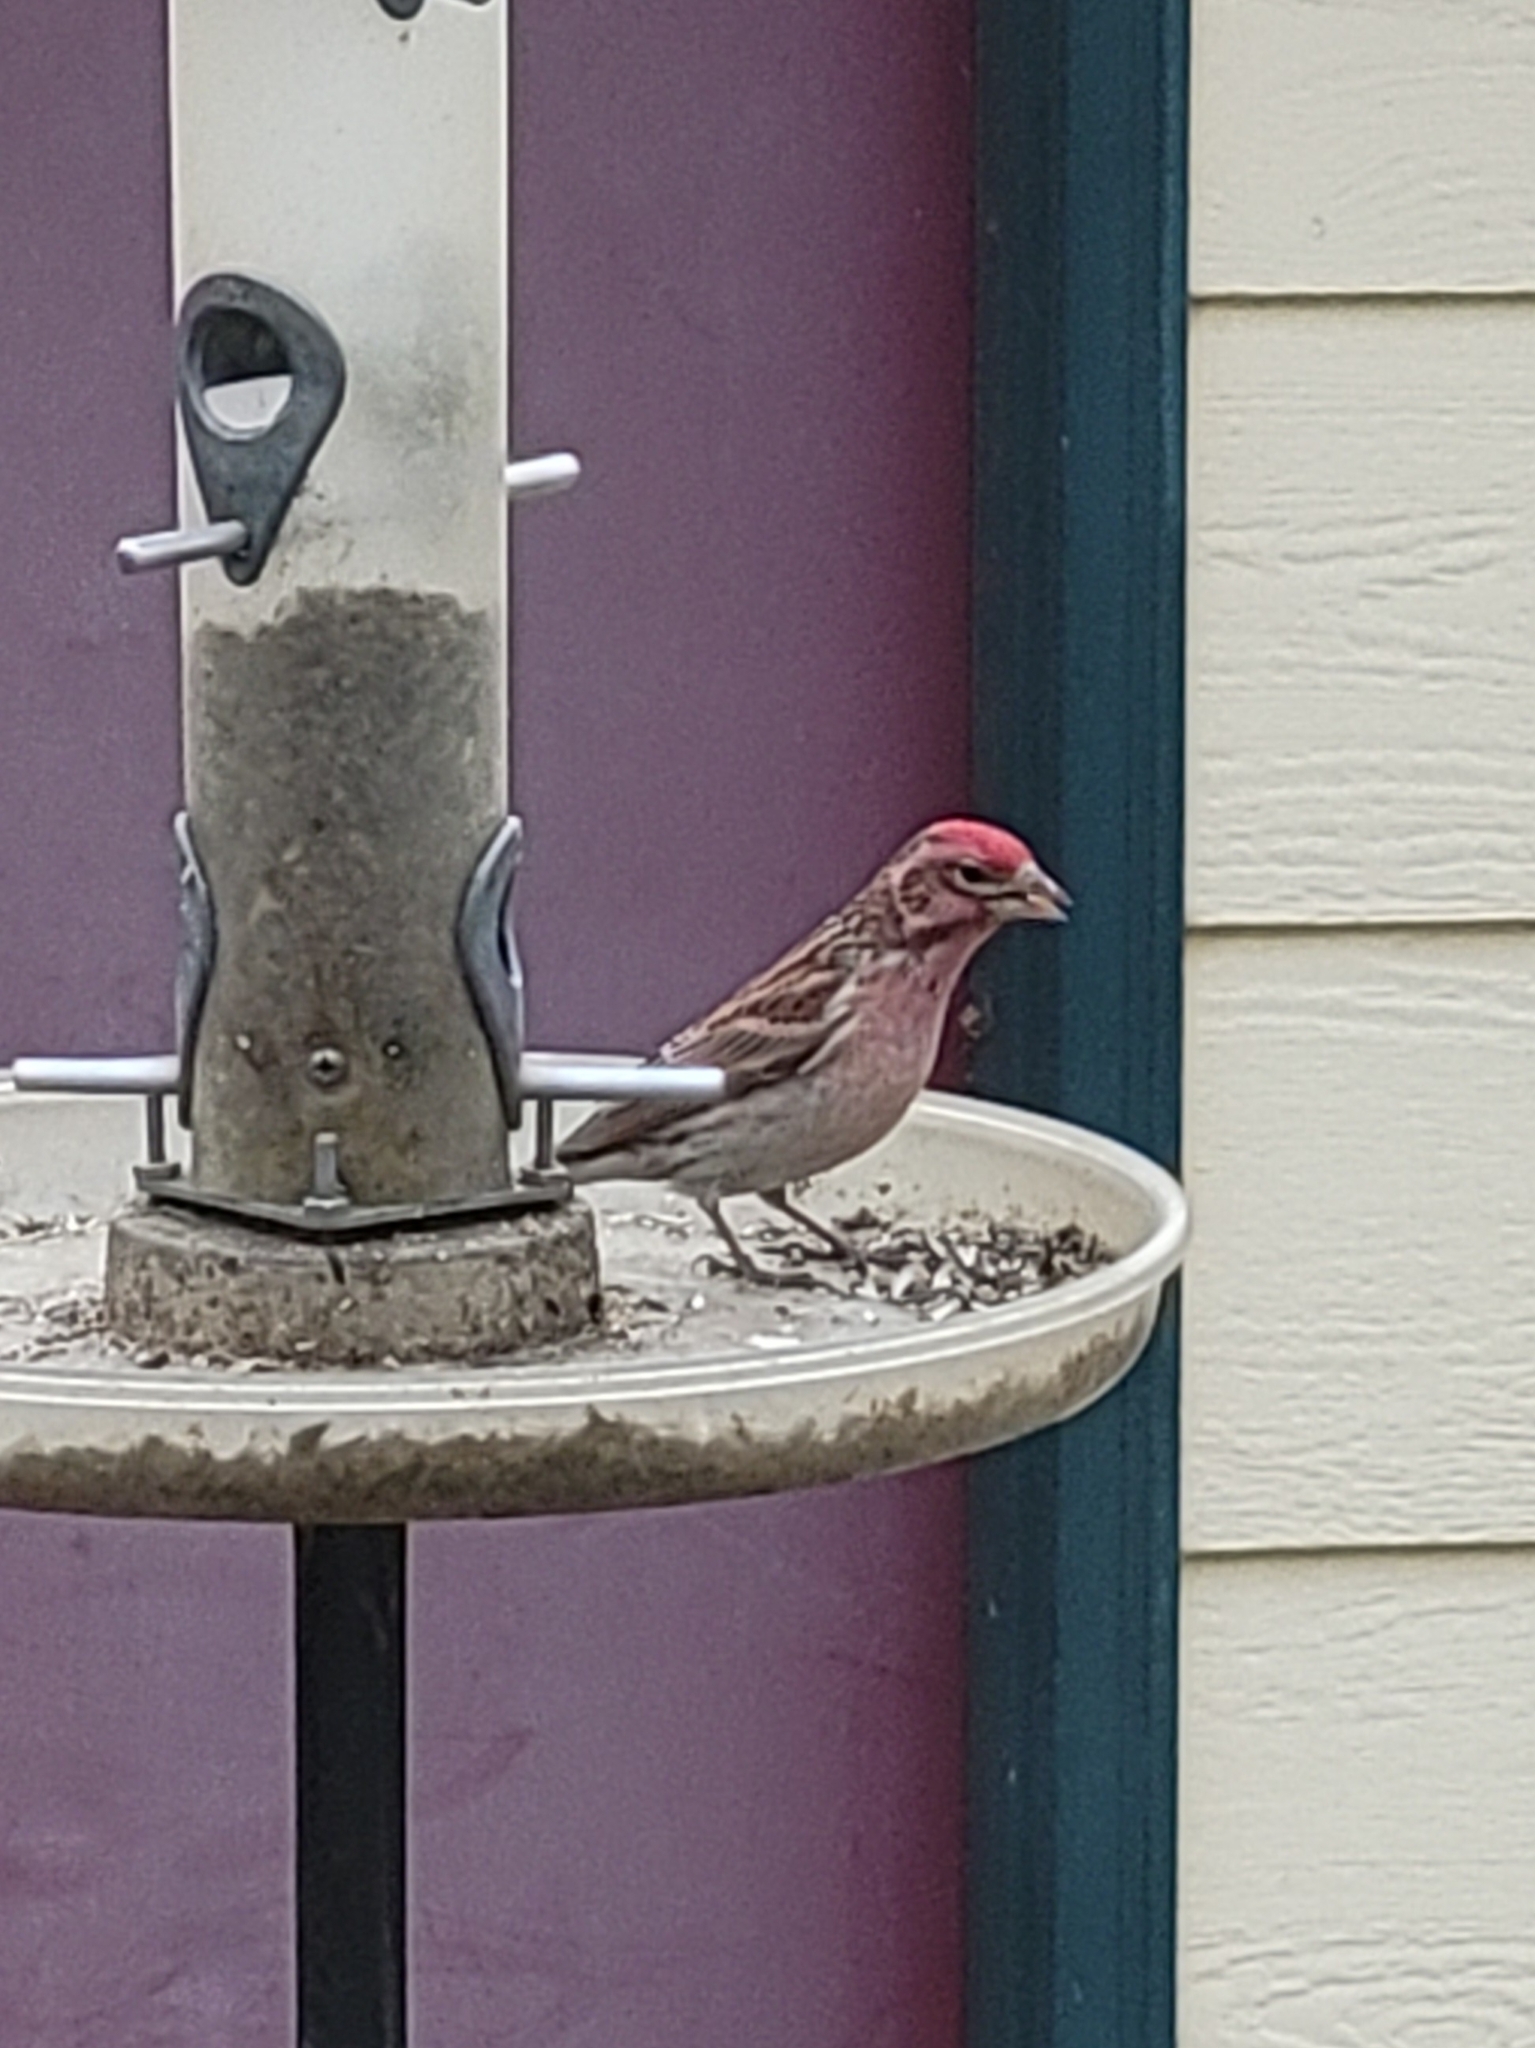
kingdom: Animalia
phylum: Chordata
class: Aves
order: Passeriformes
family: Fringillidae
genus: Haemorhous
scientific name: Haemorhous cassinii
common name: Cassin's finch
